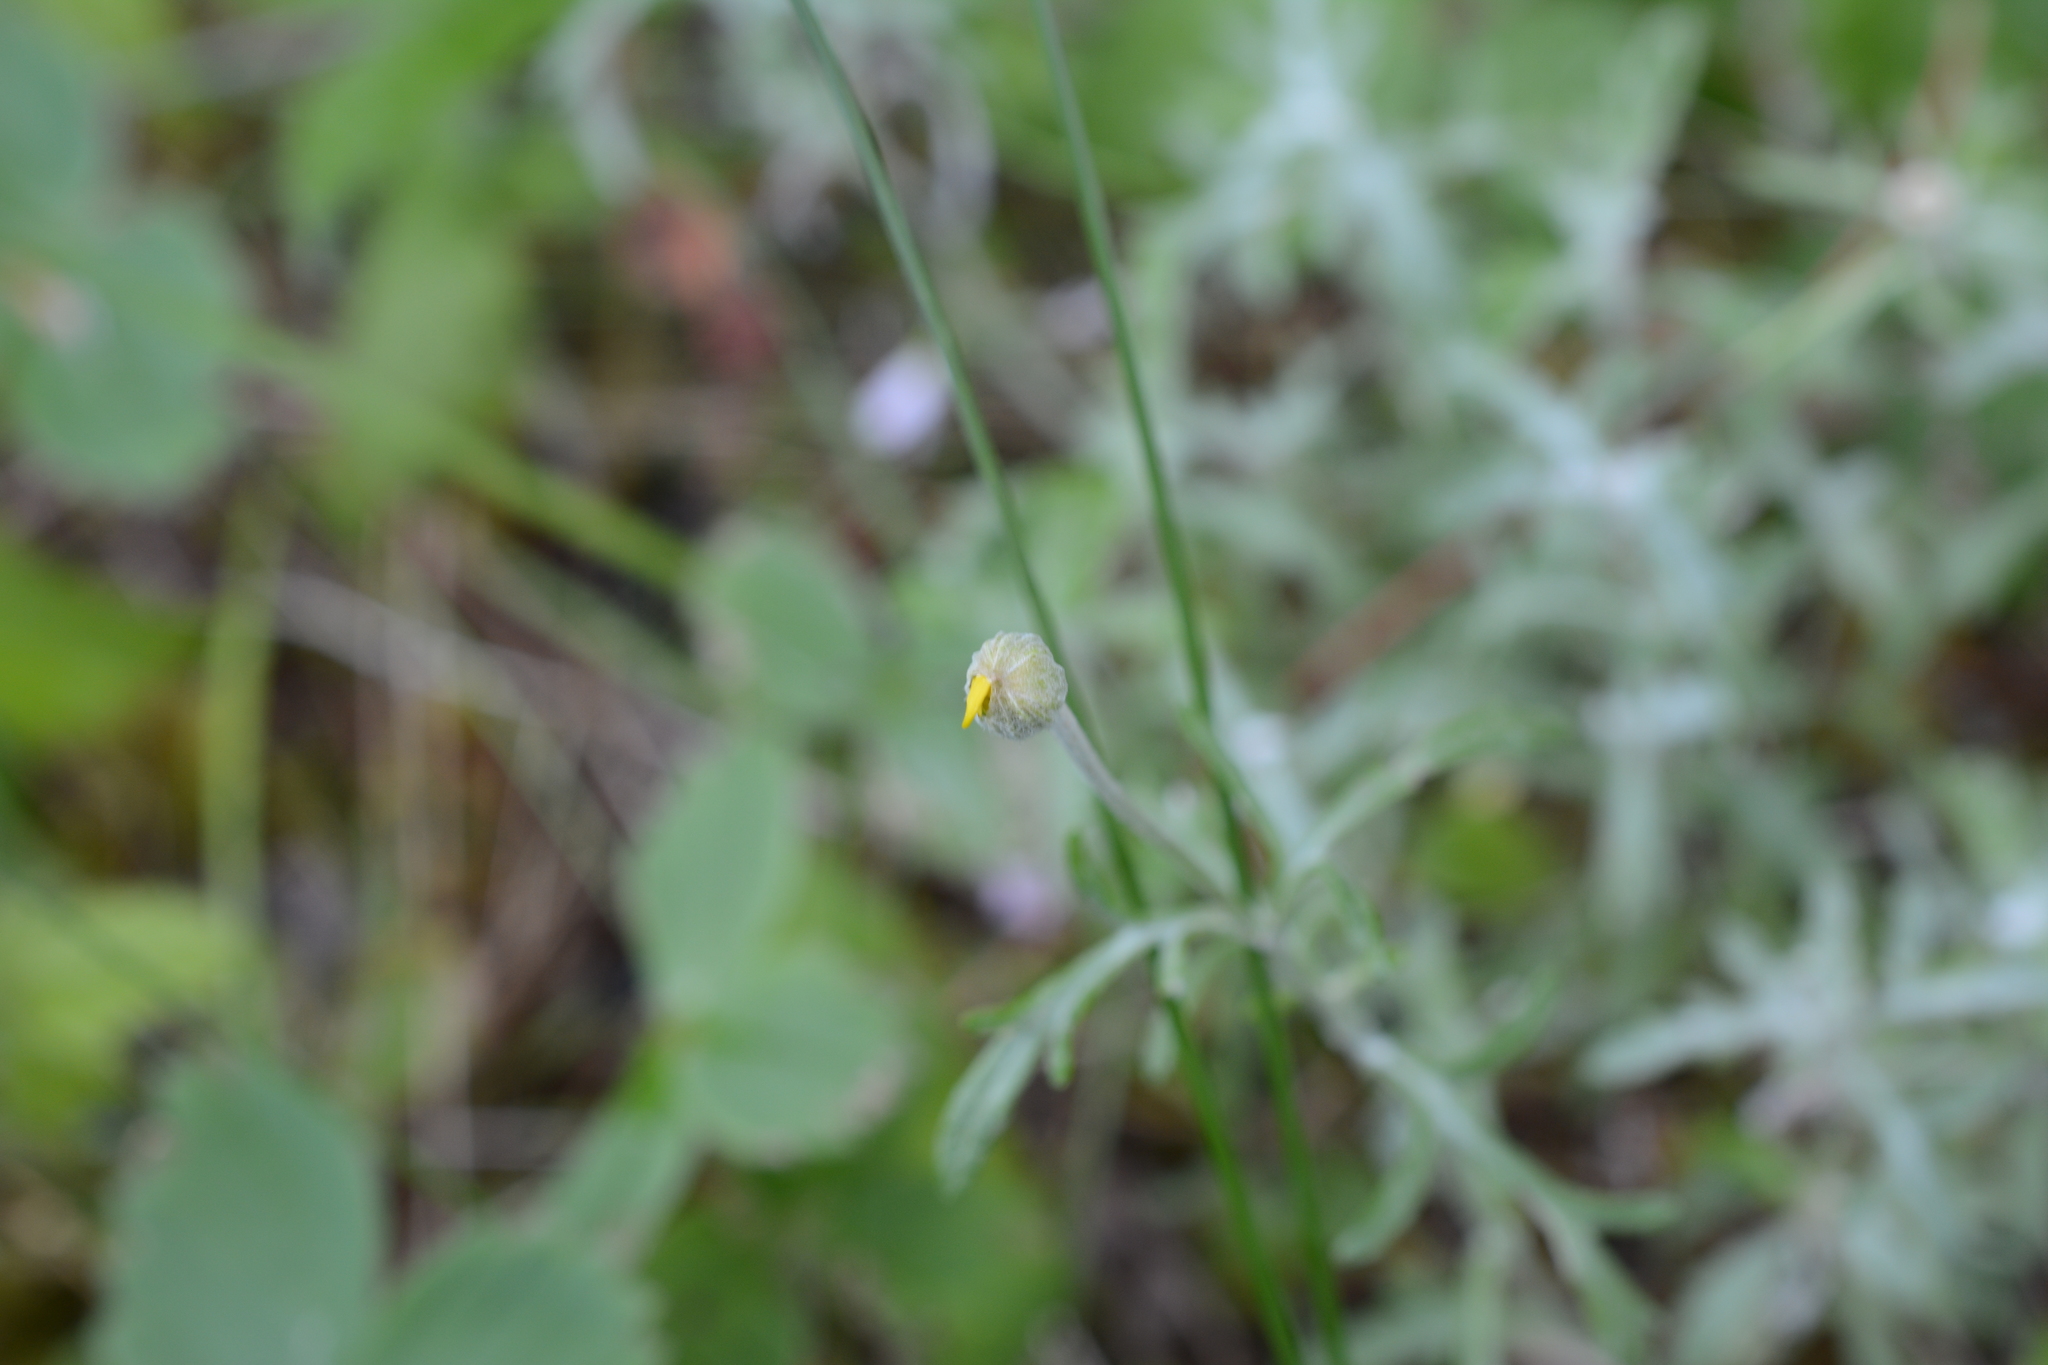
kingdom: Plantae
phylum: Tracheophyta
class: Magnoliopsida
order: Asterales
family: Asteraceae
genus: Eriophyllum
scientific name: Eriophyllum lanatum
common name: Common woolly-sunflower
